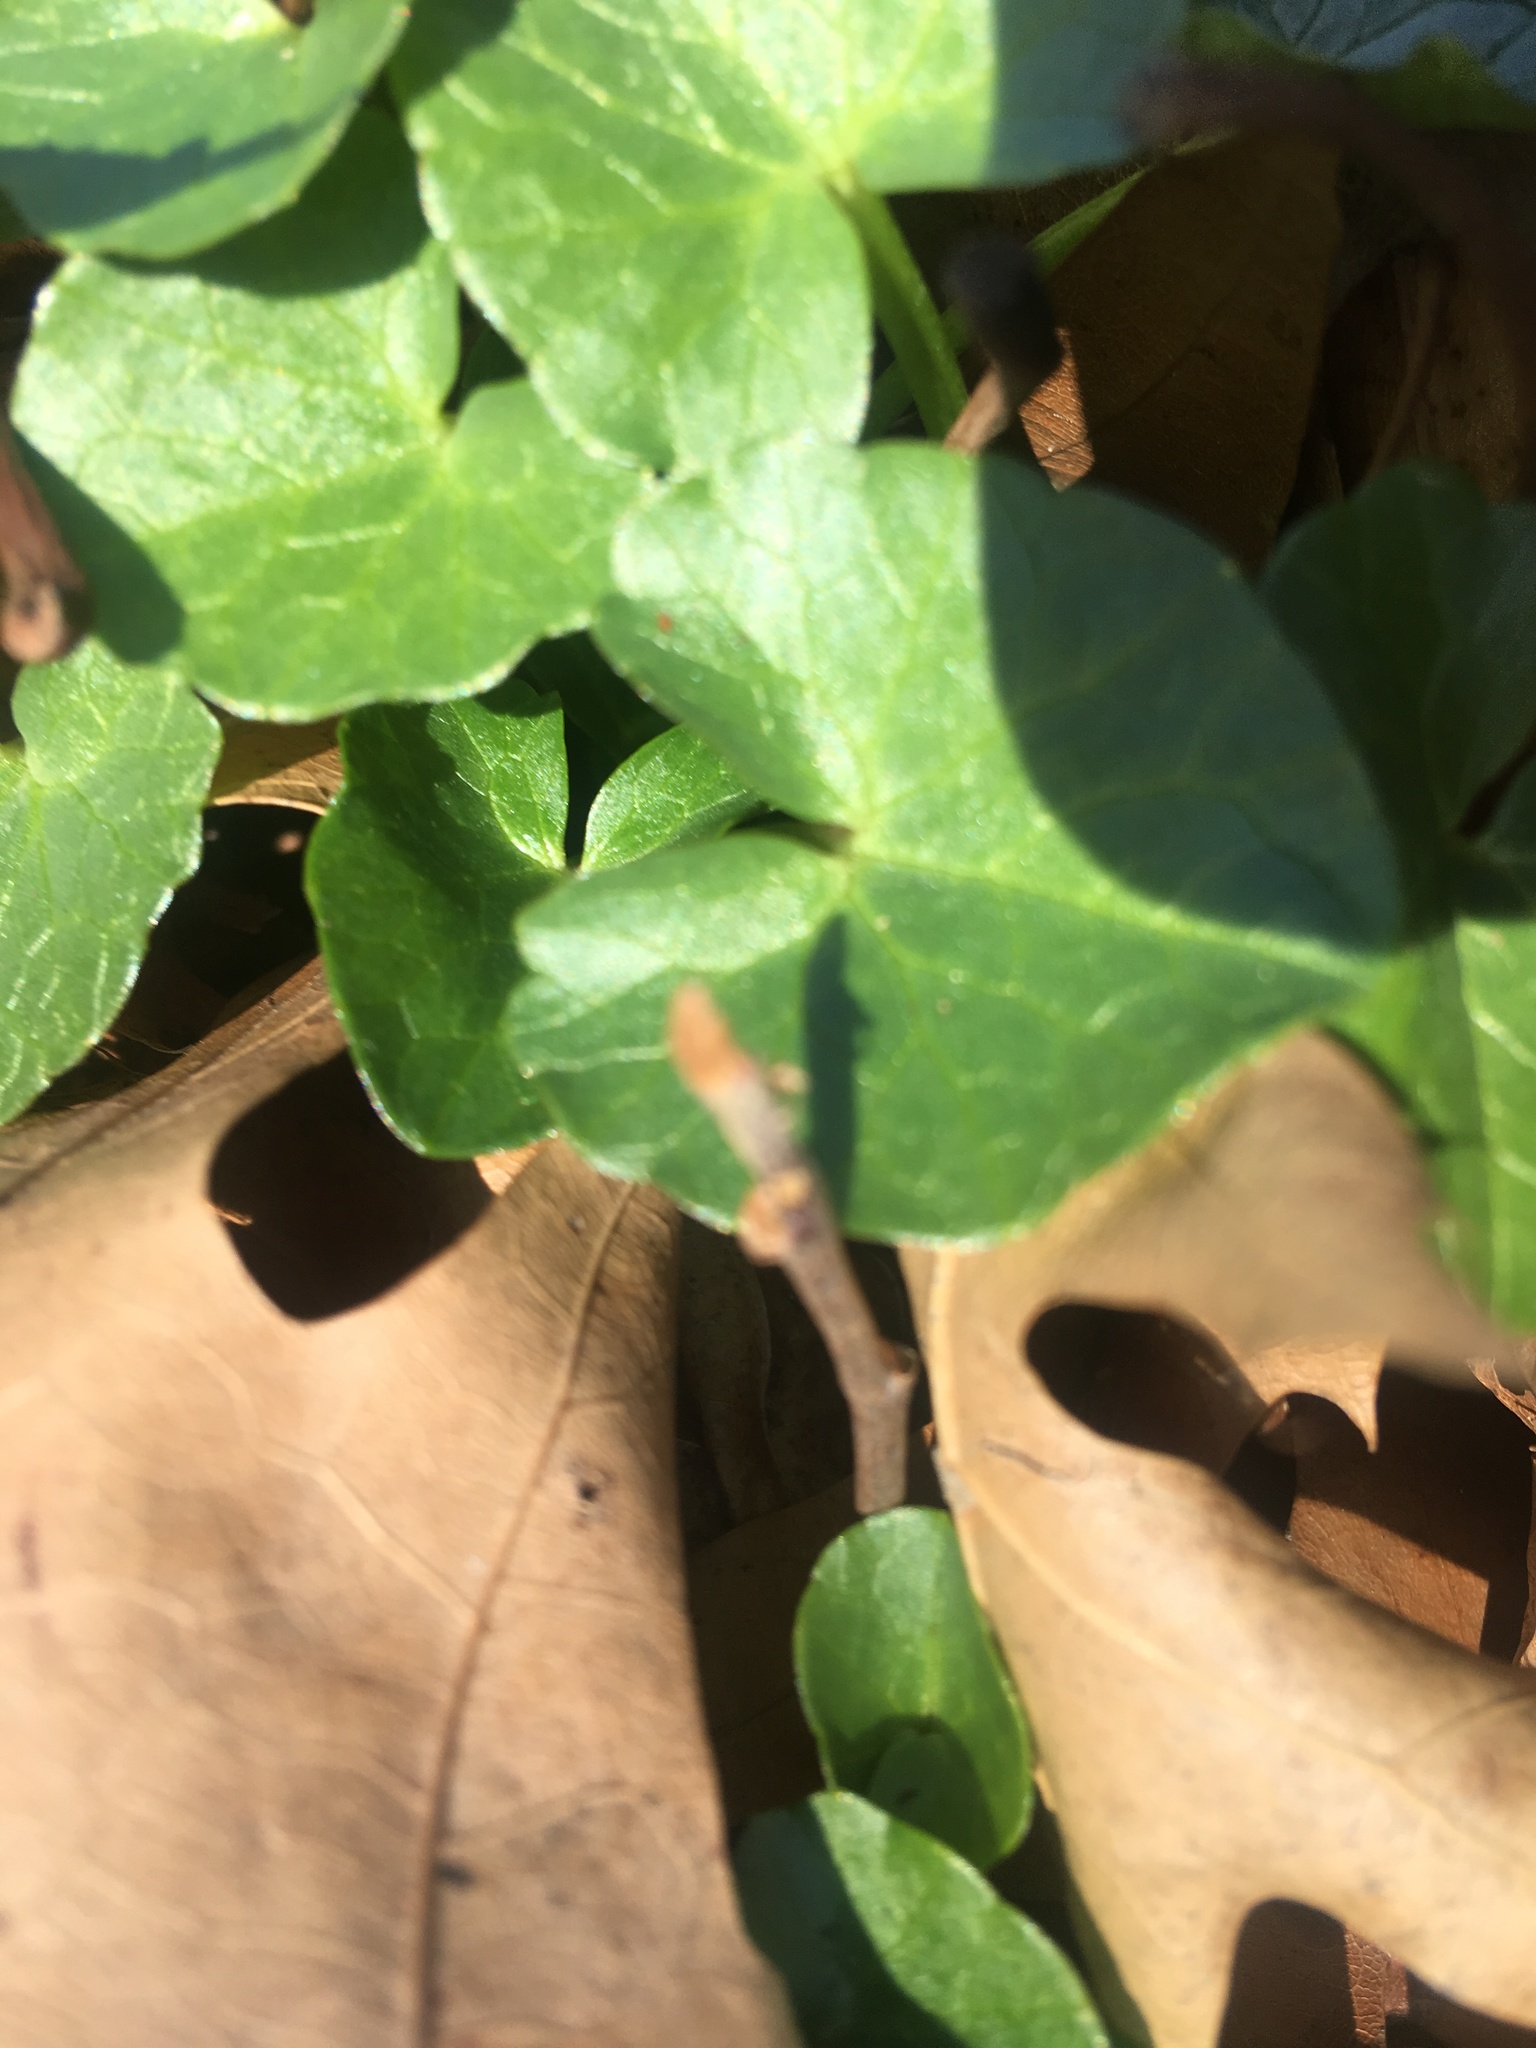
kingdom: Plantae
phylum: Tracheophyta
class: Magnoliopsida
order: Ranunculales
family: Ranunculaceae
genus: Ficaria
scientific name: Ficaria verna
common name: Lesser celandine
